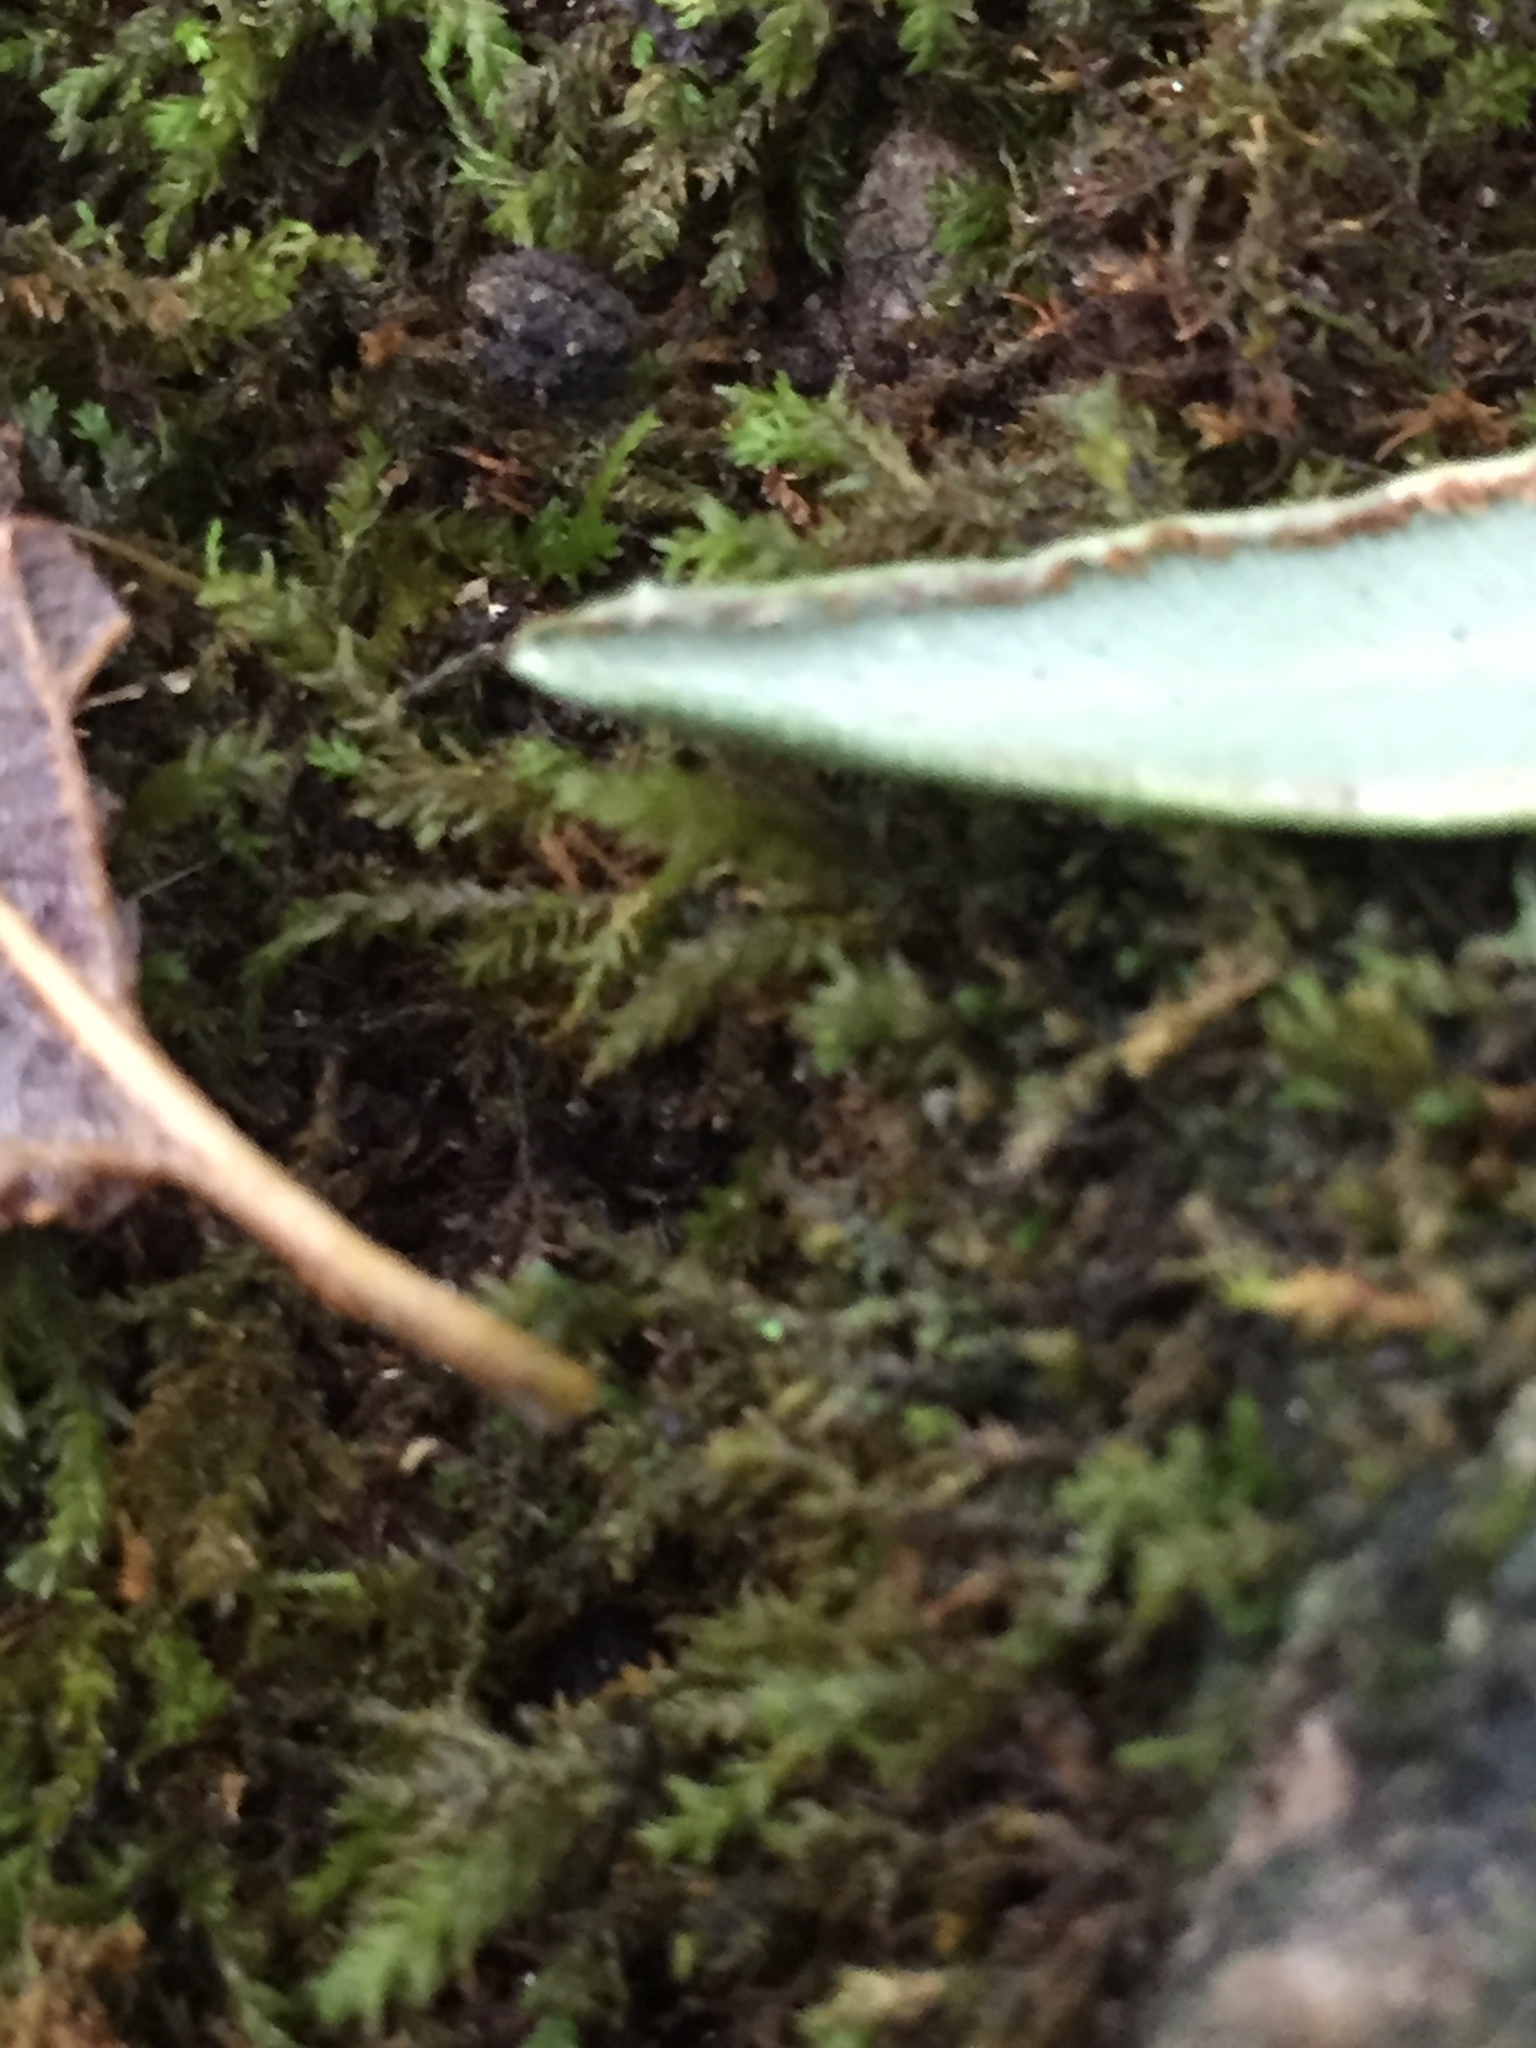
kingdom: Plantae
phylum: Tracheophyta
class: Polypodiopsida
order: Polypodiales
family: Pteridaceae
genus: Pellaea
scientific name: Pellaea atropurpurea
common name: Hairy cliffbrake
